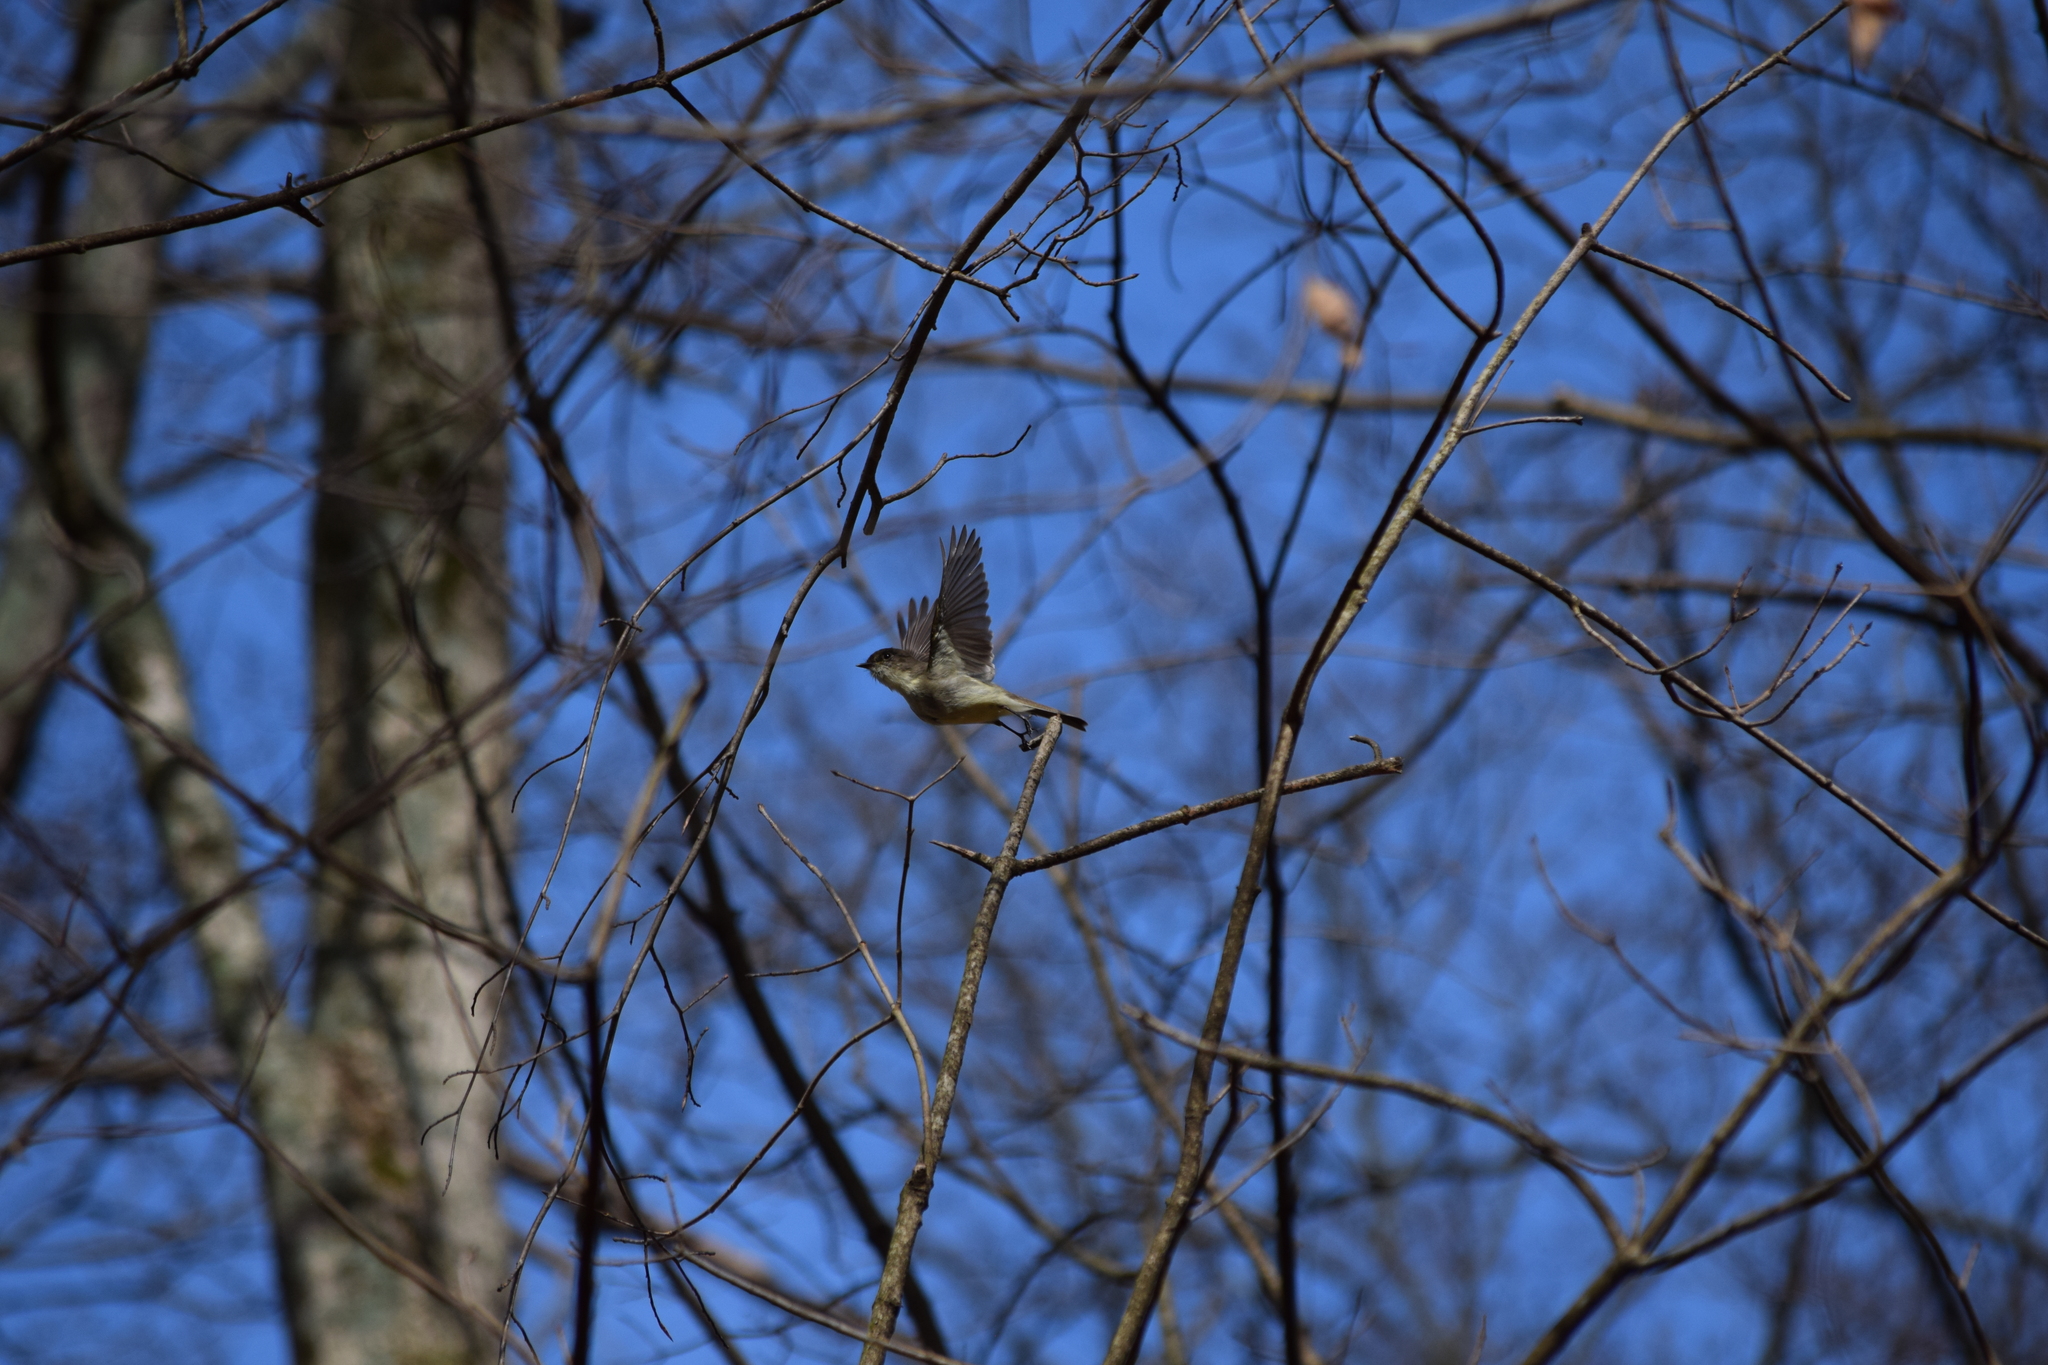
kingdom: Animalia
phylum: Chordata
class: Aves
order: Passeriformes
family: Tyrannidae
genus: Sayornis
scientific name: Sayornis phoebe
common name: Eastern phoebe
